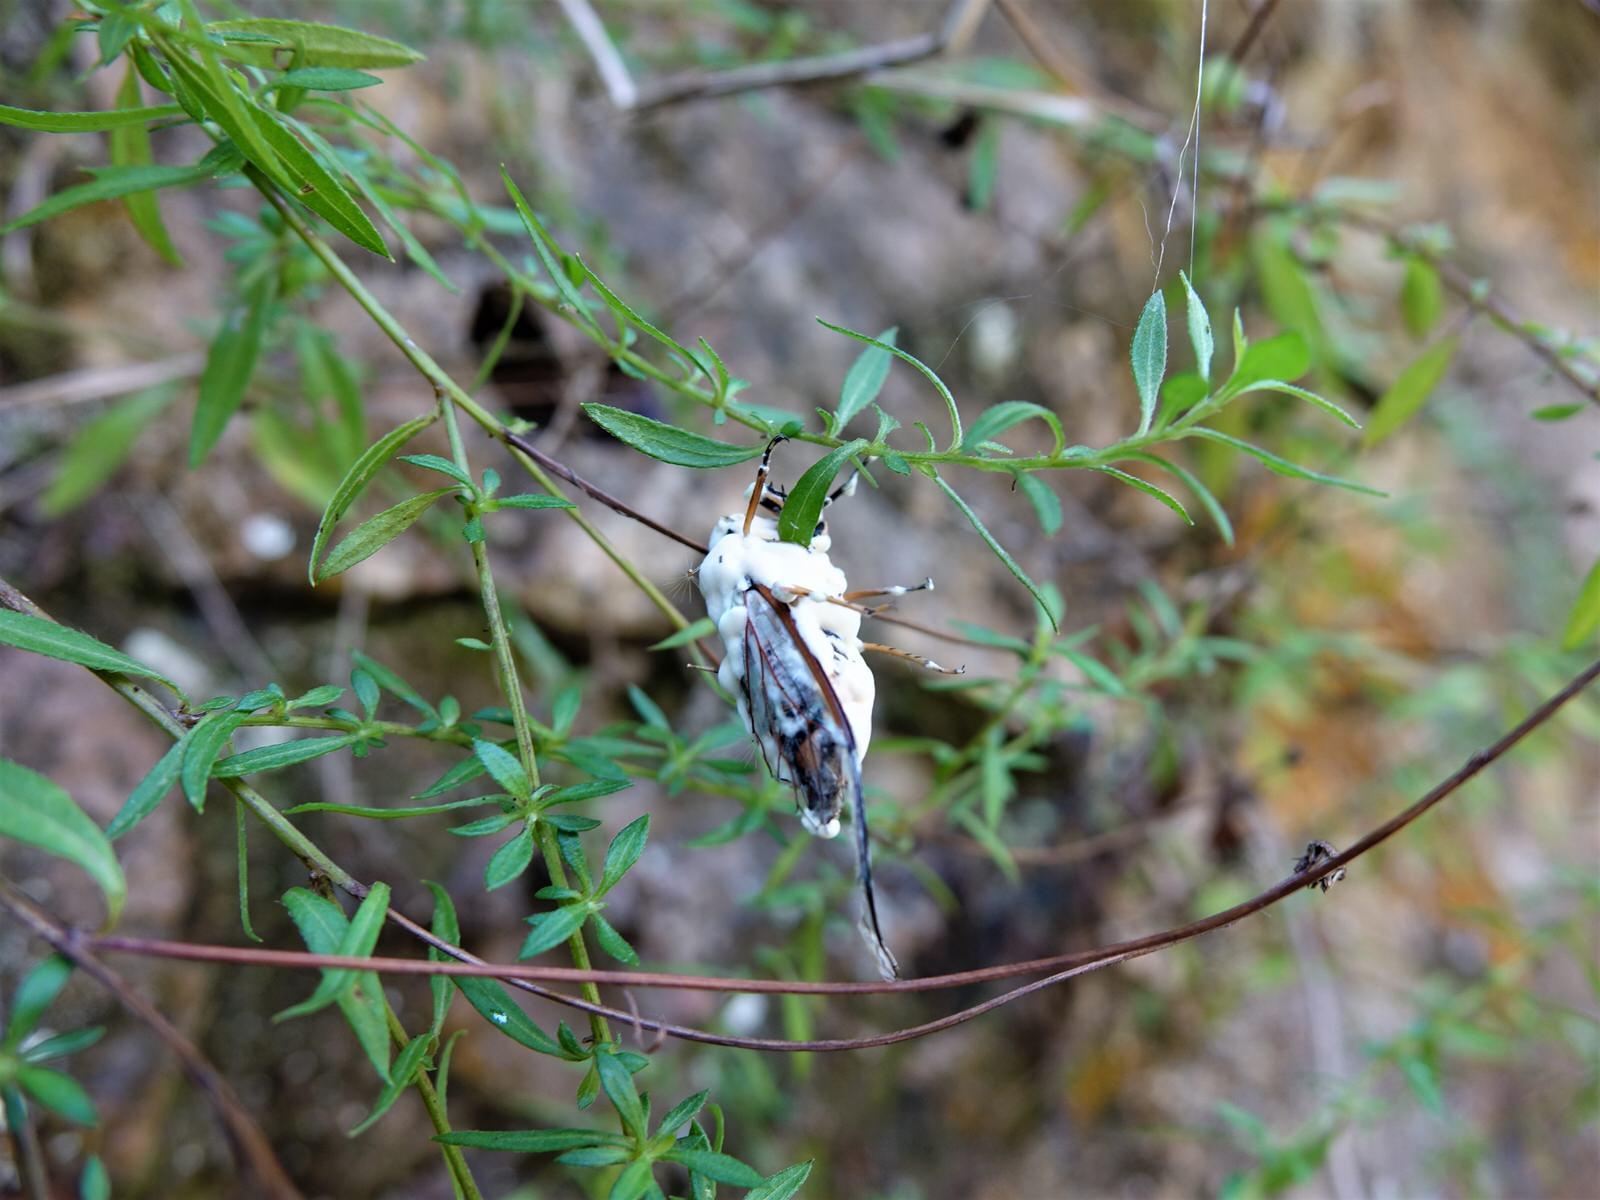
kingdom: Fungi
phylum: Ascomycota
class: Sordariomycetes
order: Hypocreales
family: Cordycipitaceae
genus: Beauveria
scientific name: Beauveria bassiana
